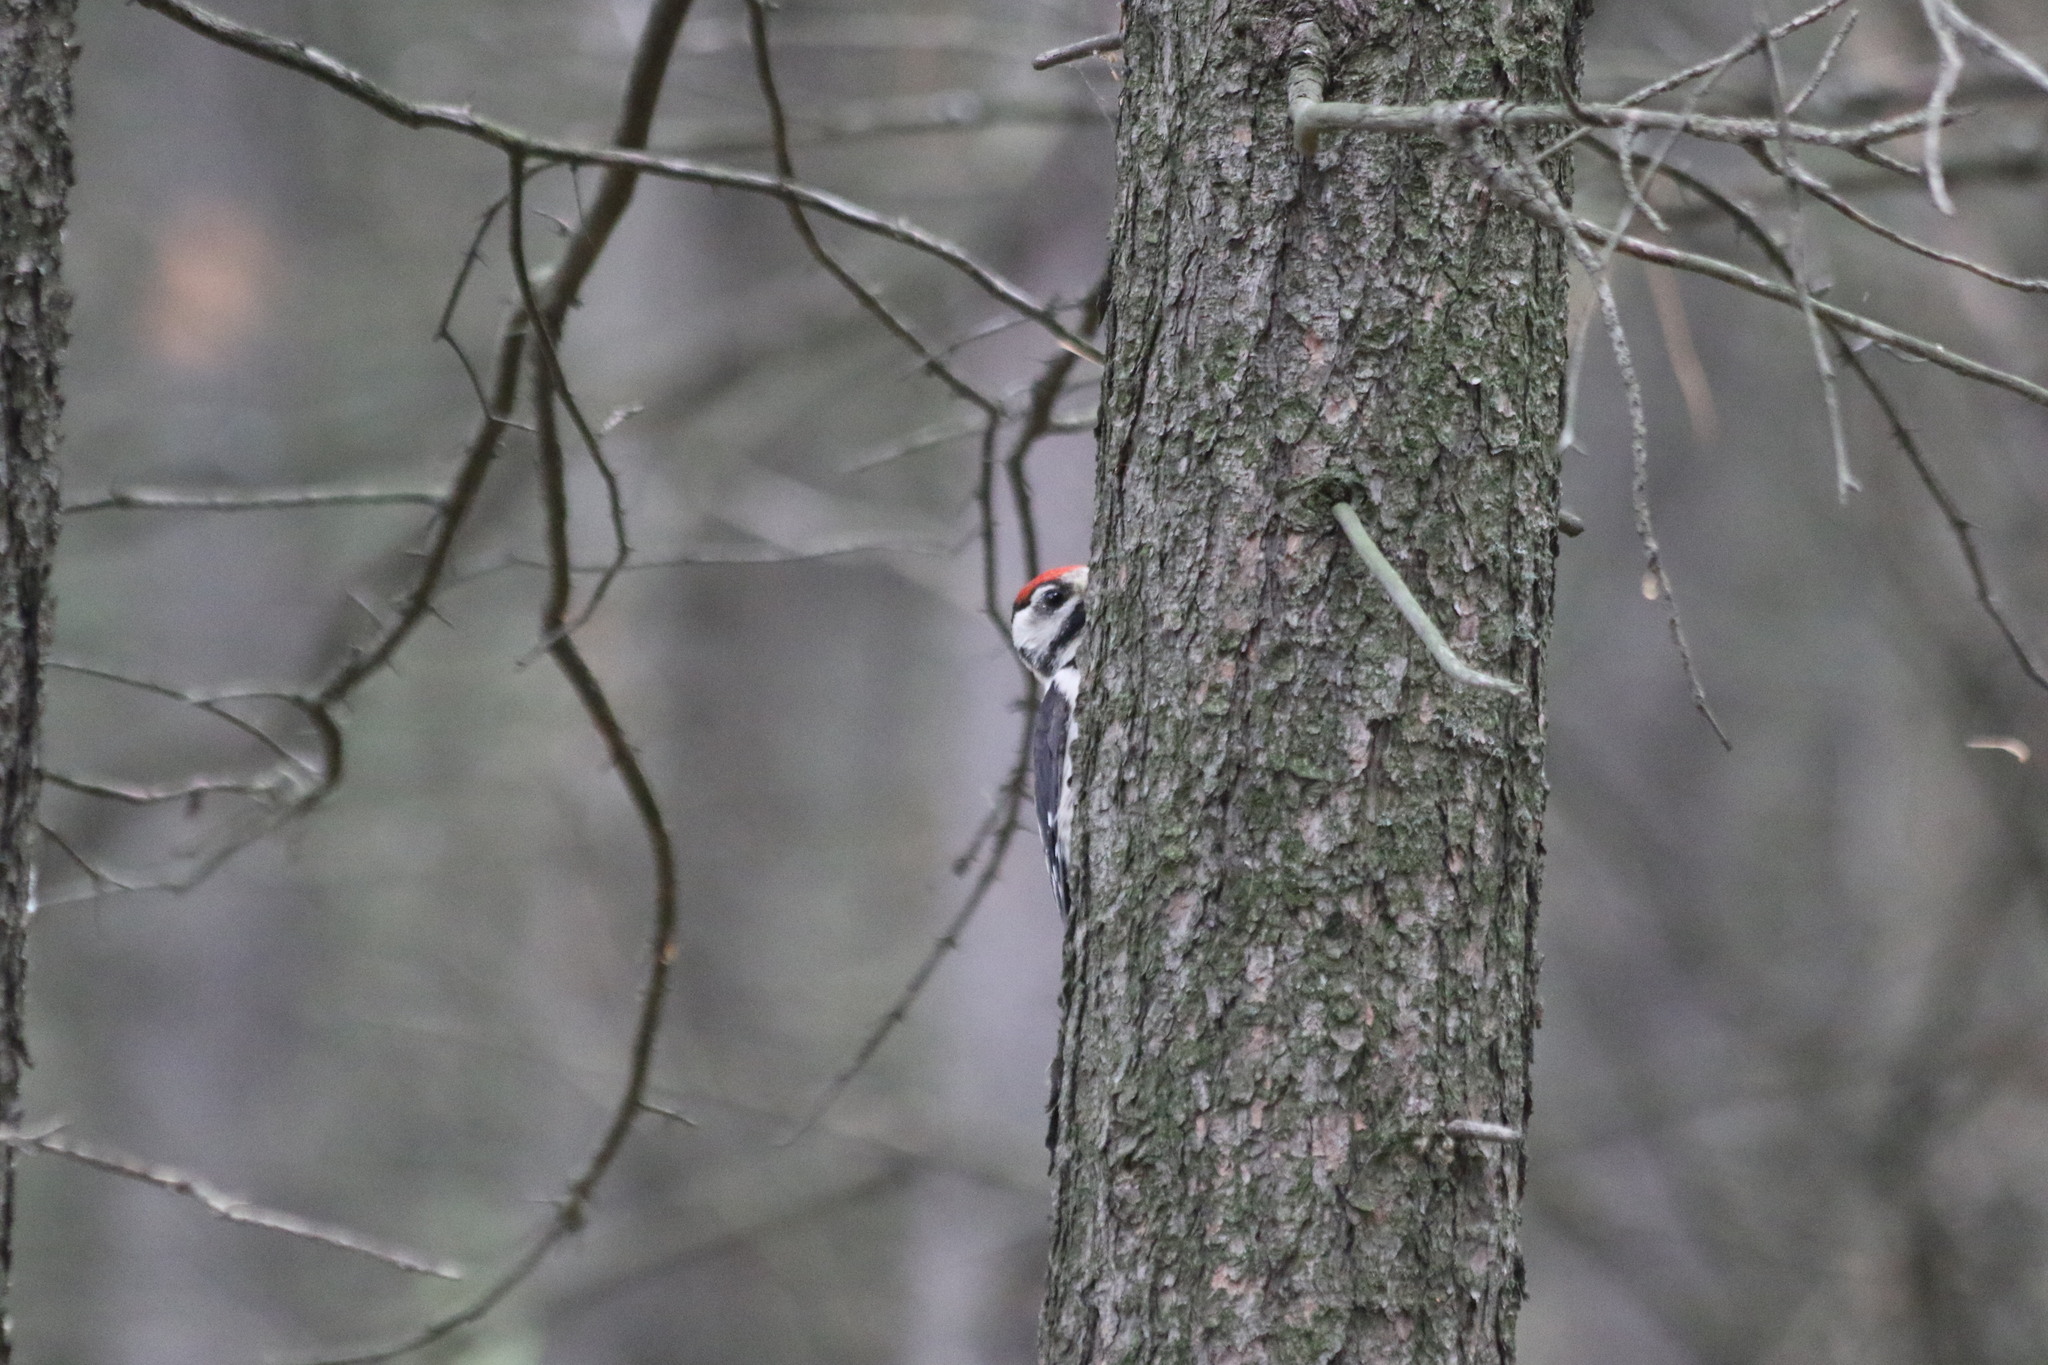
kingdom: Animalia
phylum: Chordata
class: Aves
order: Piciformes
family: Picidae
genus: Dendrocopos
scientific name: Dendrocopos major
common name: Great spotted woodpecker
